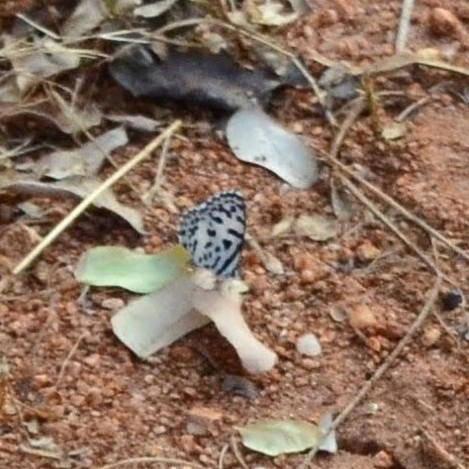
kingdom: Animalia
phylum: Arthropoda
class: Insecta
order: Lepidoptera
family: Lycaenidae
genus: Castalius
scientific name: Castalius rosimon
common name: Common pierrot
